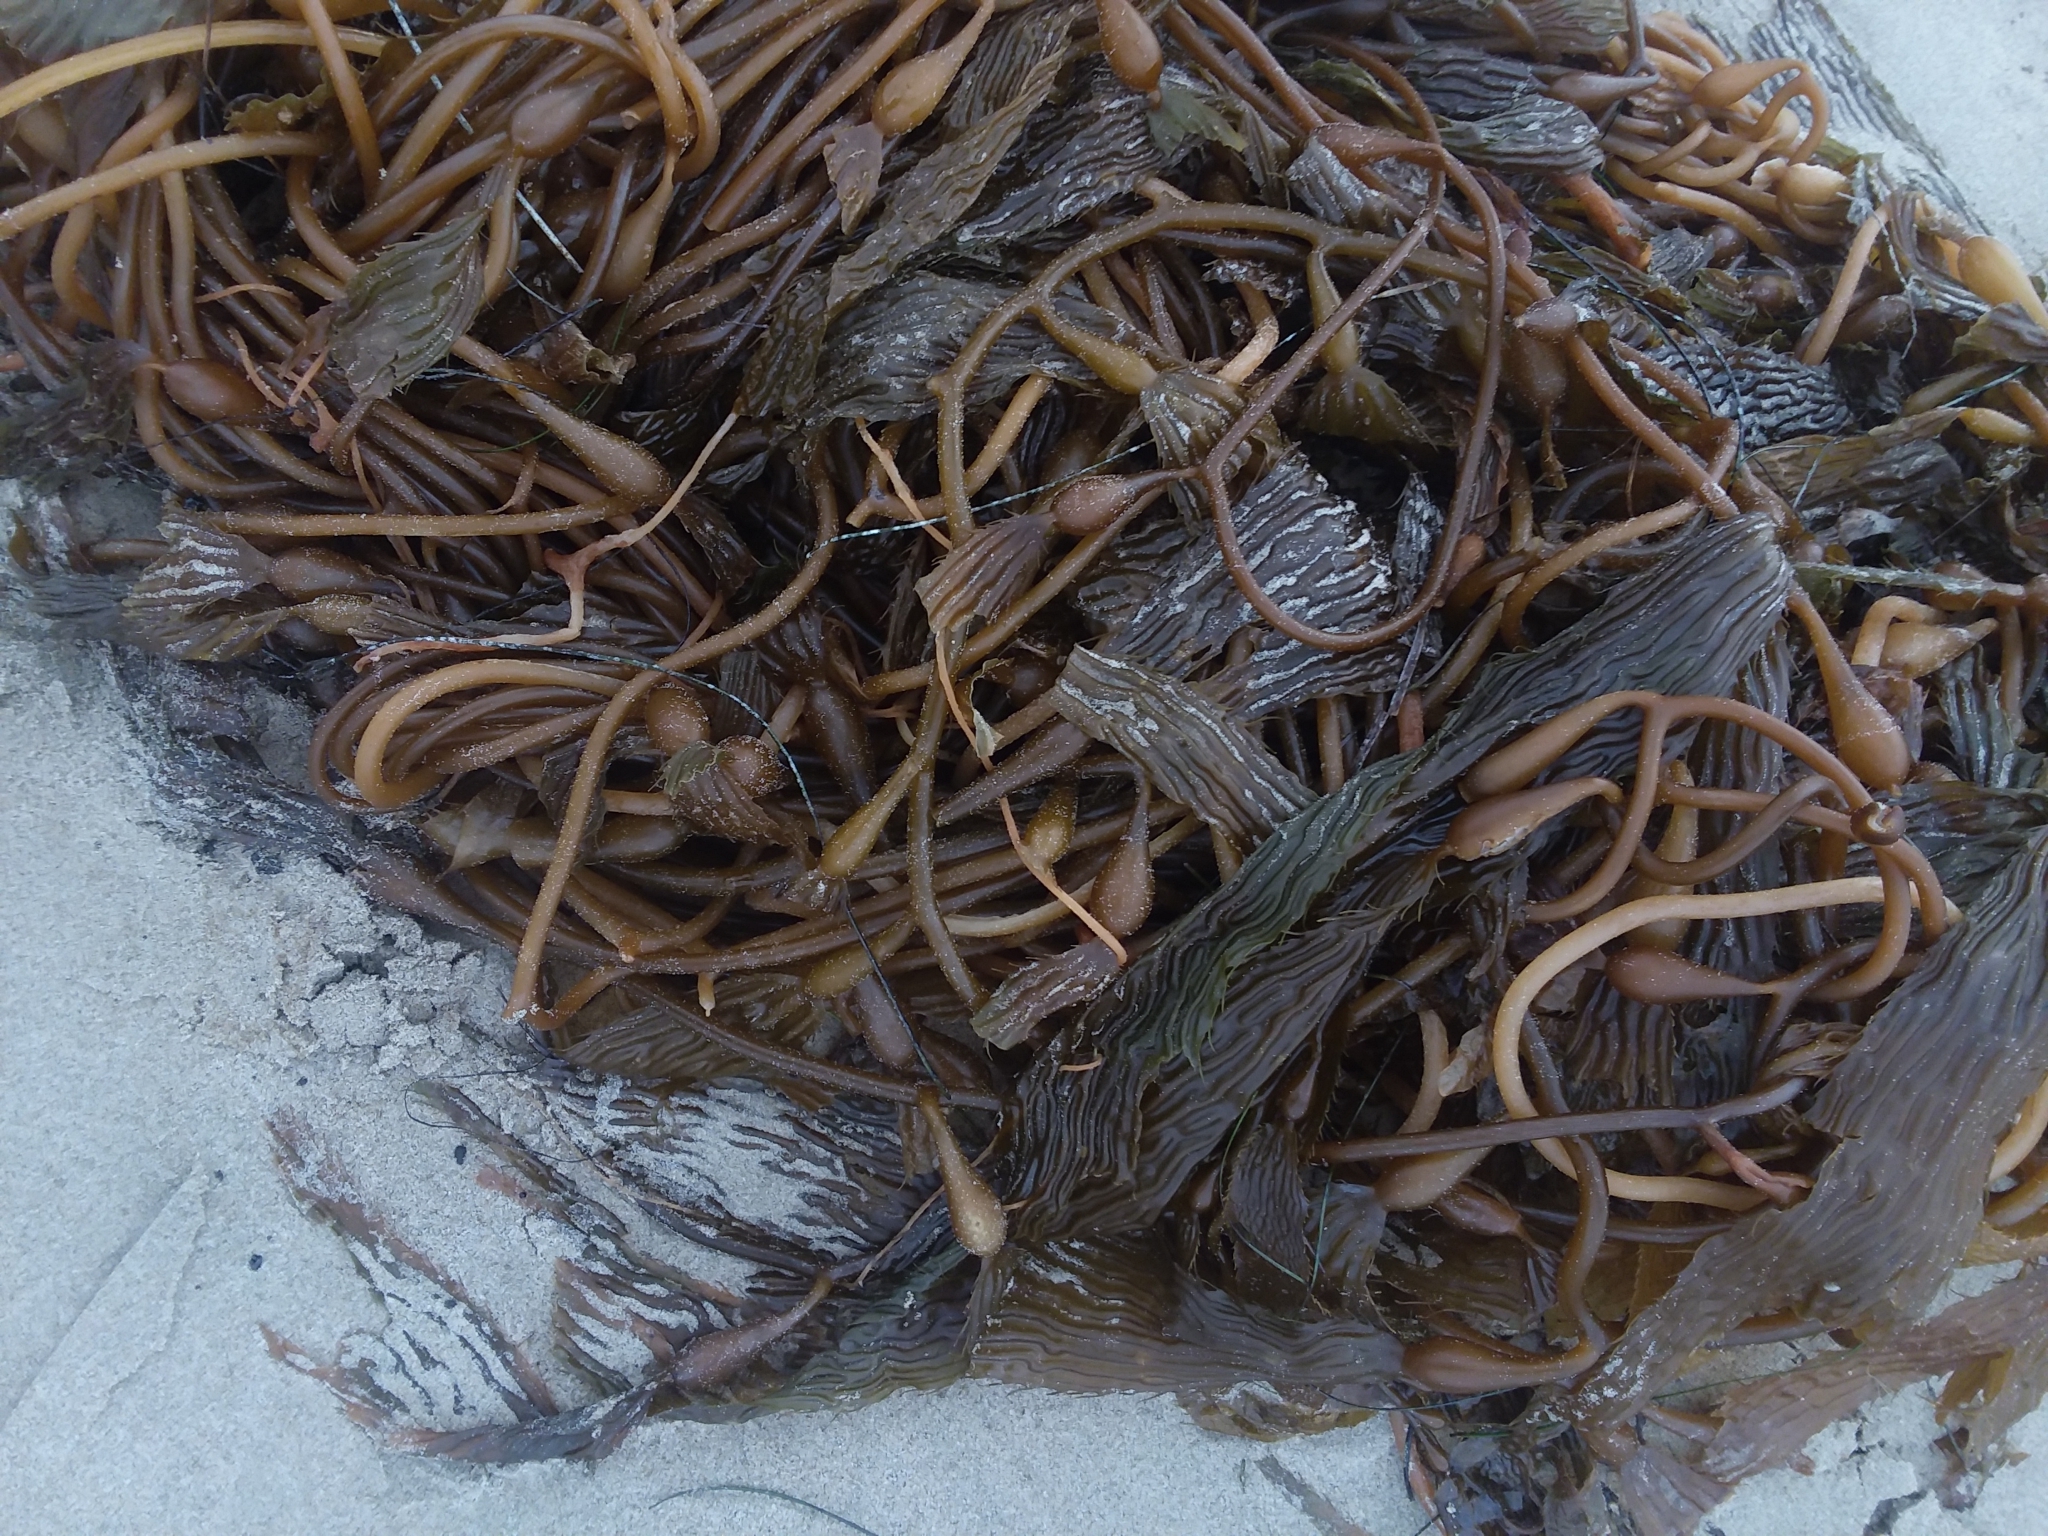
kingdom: Chromista
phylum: Ochrophyta
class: Phaeophyceae
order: Laminariales
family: Laminariaceae
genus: Macrocystis
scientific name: Macrocystis pyrifera
